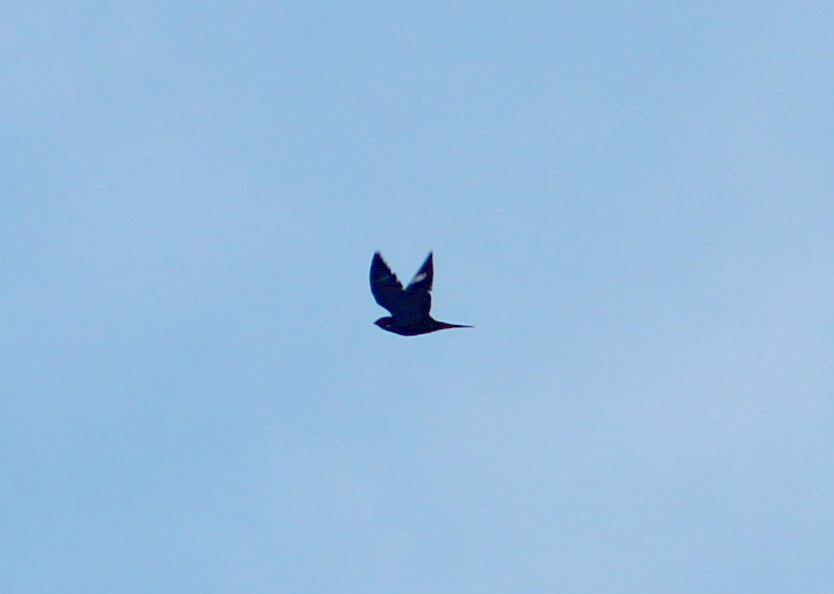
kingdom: Animalia
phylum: Chordata
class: Aves
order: Caprimulgiformes
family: Caprimulgidae
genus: Chordeiles
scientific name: Chordeiles minor
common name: Common nighthawk
